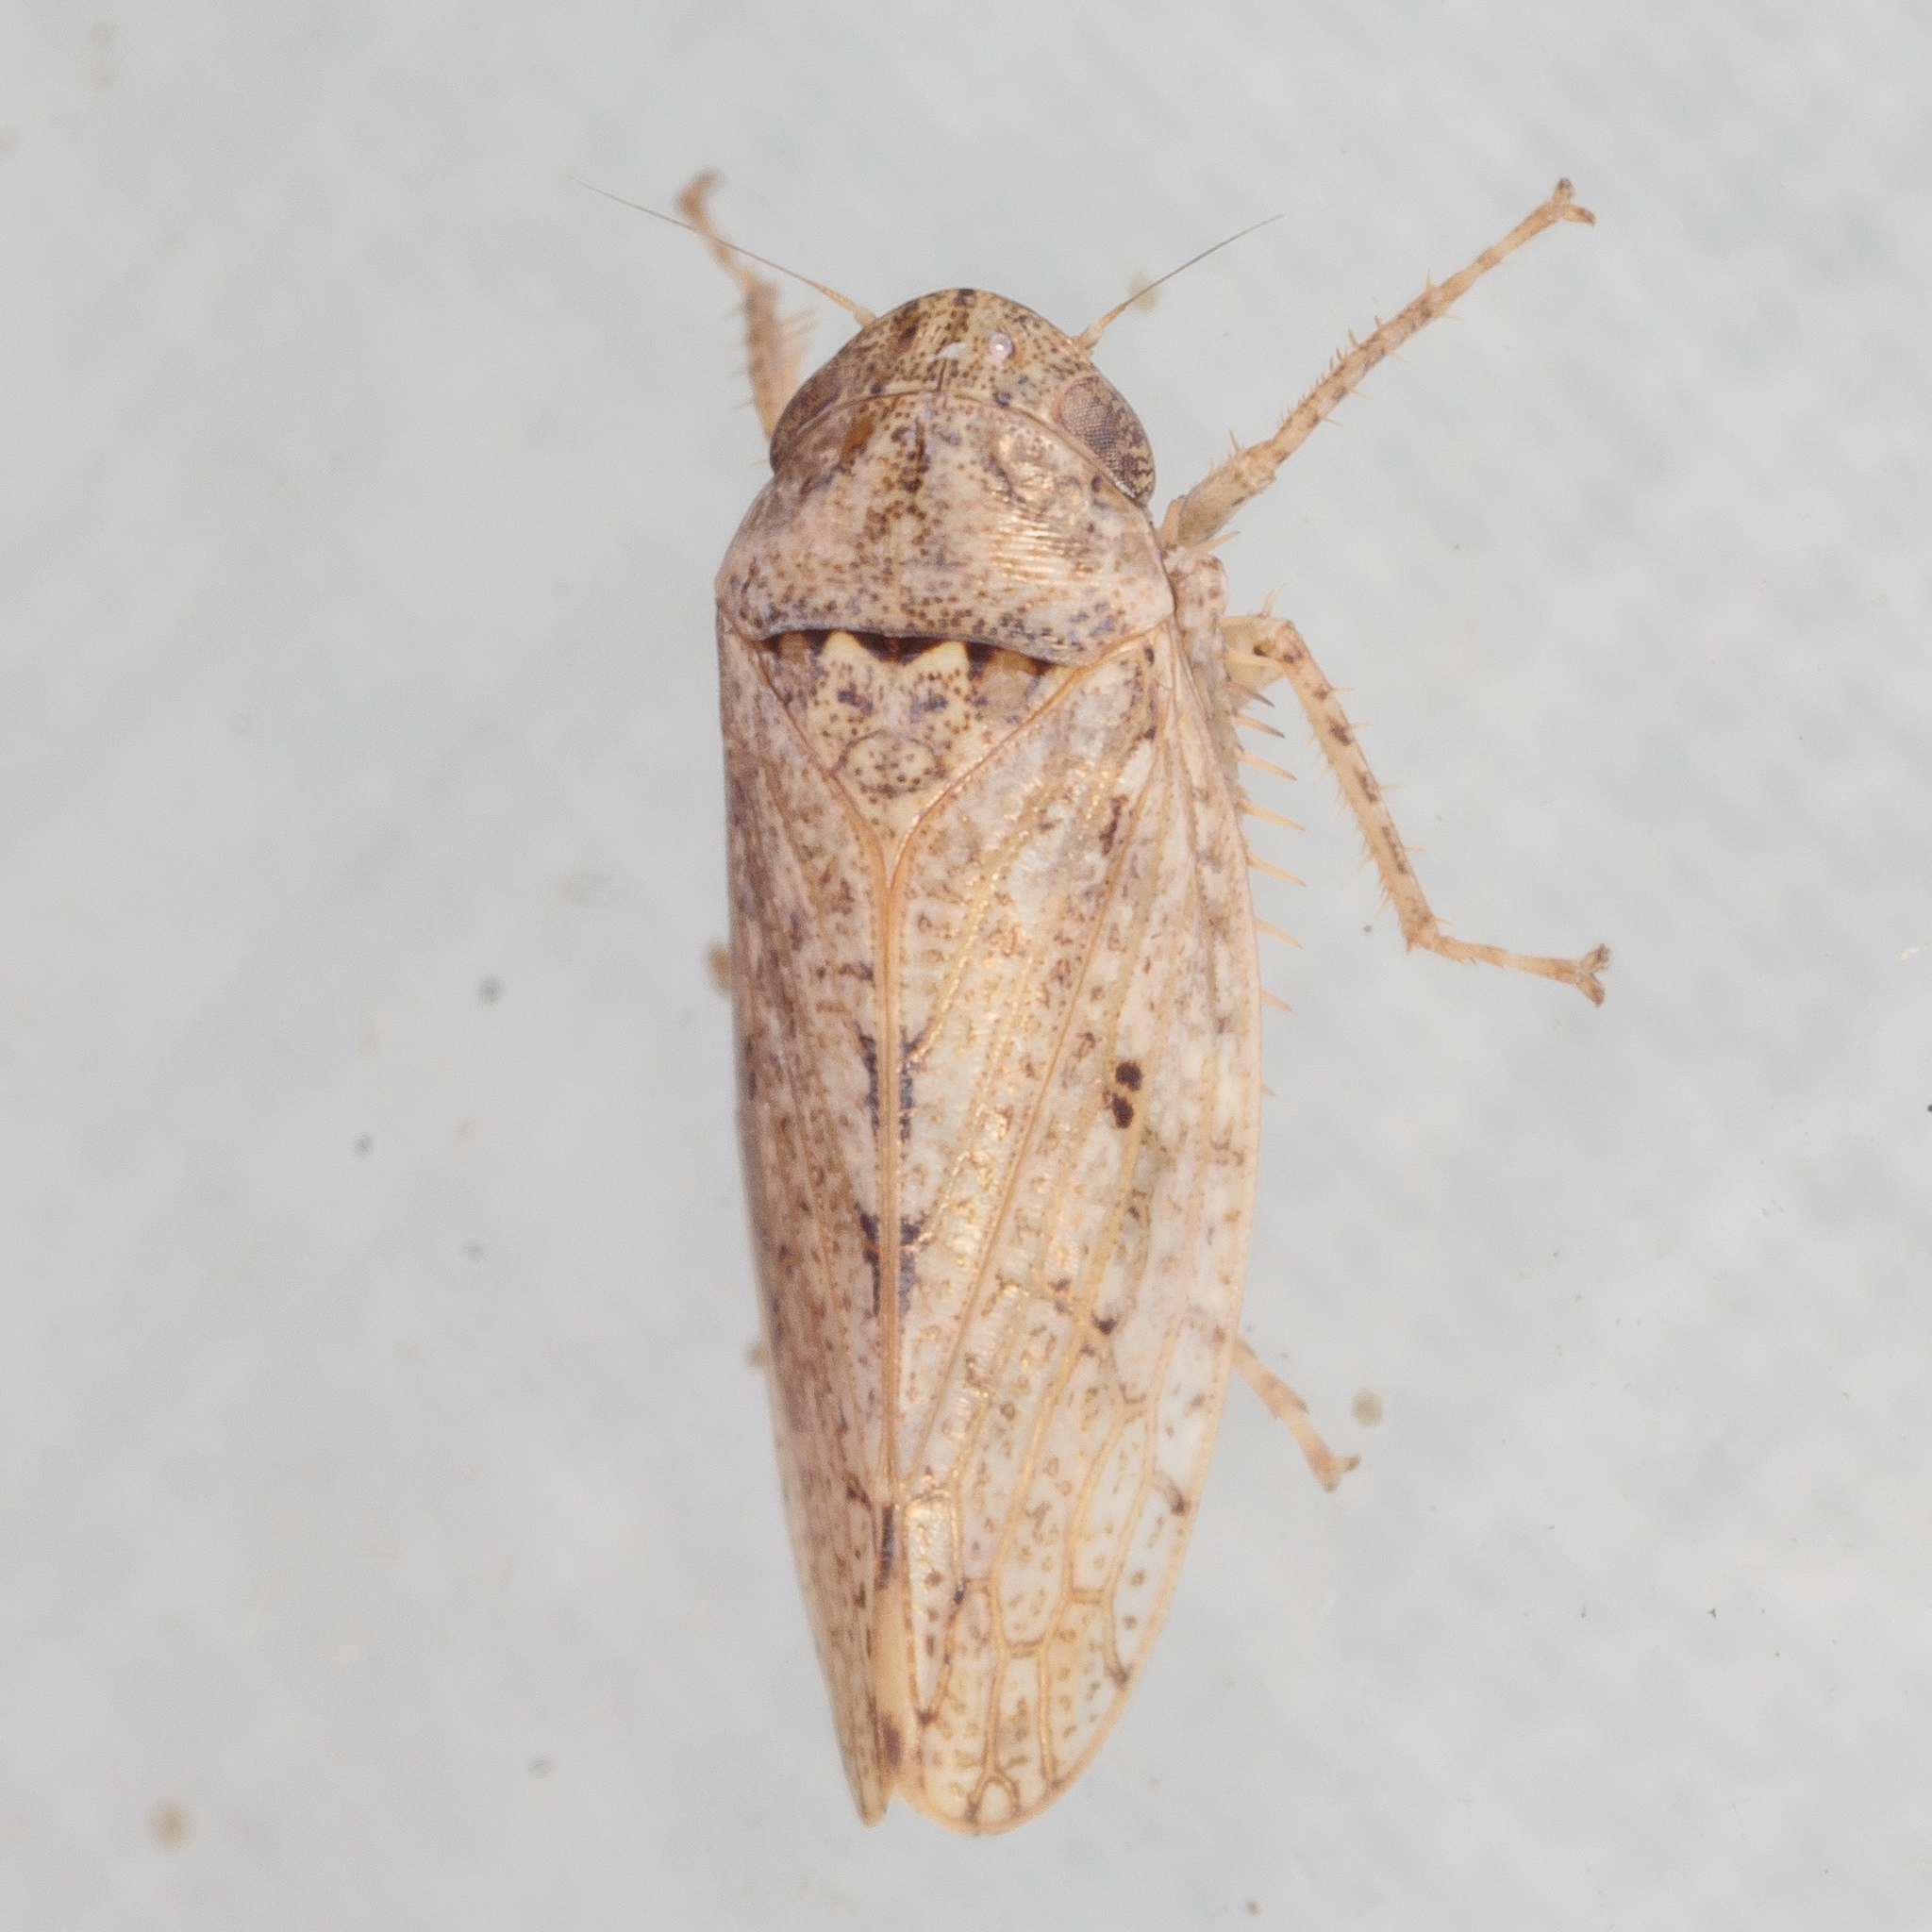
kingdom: Animalia
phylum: Arthropoda
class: Insecta
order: Hemiptera
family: Cicadellidae
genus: Curtara
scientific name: Curtara insularis
